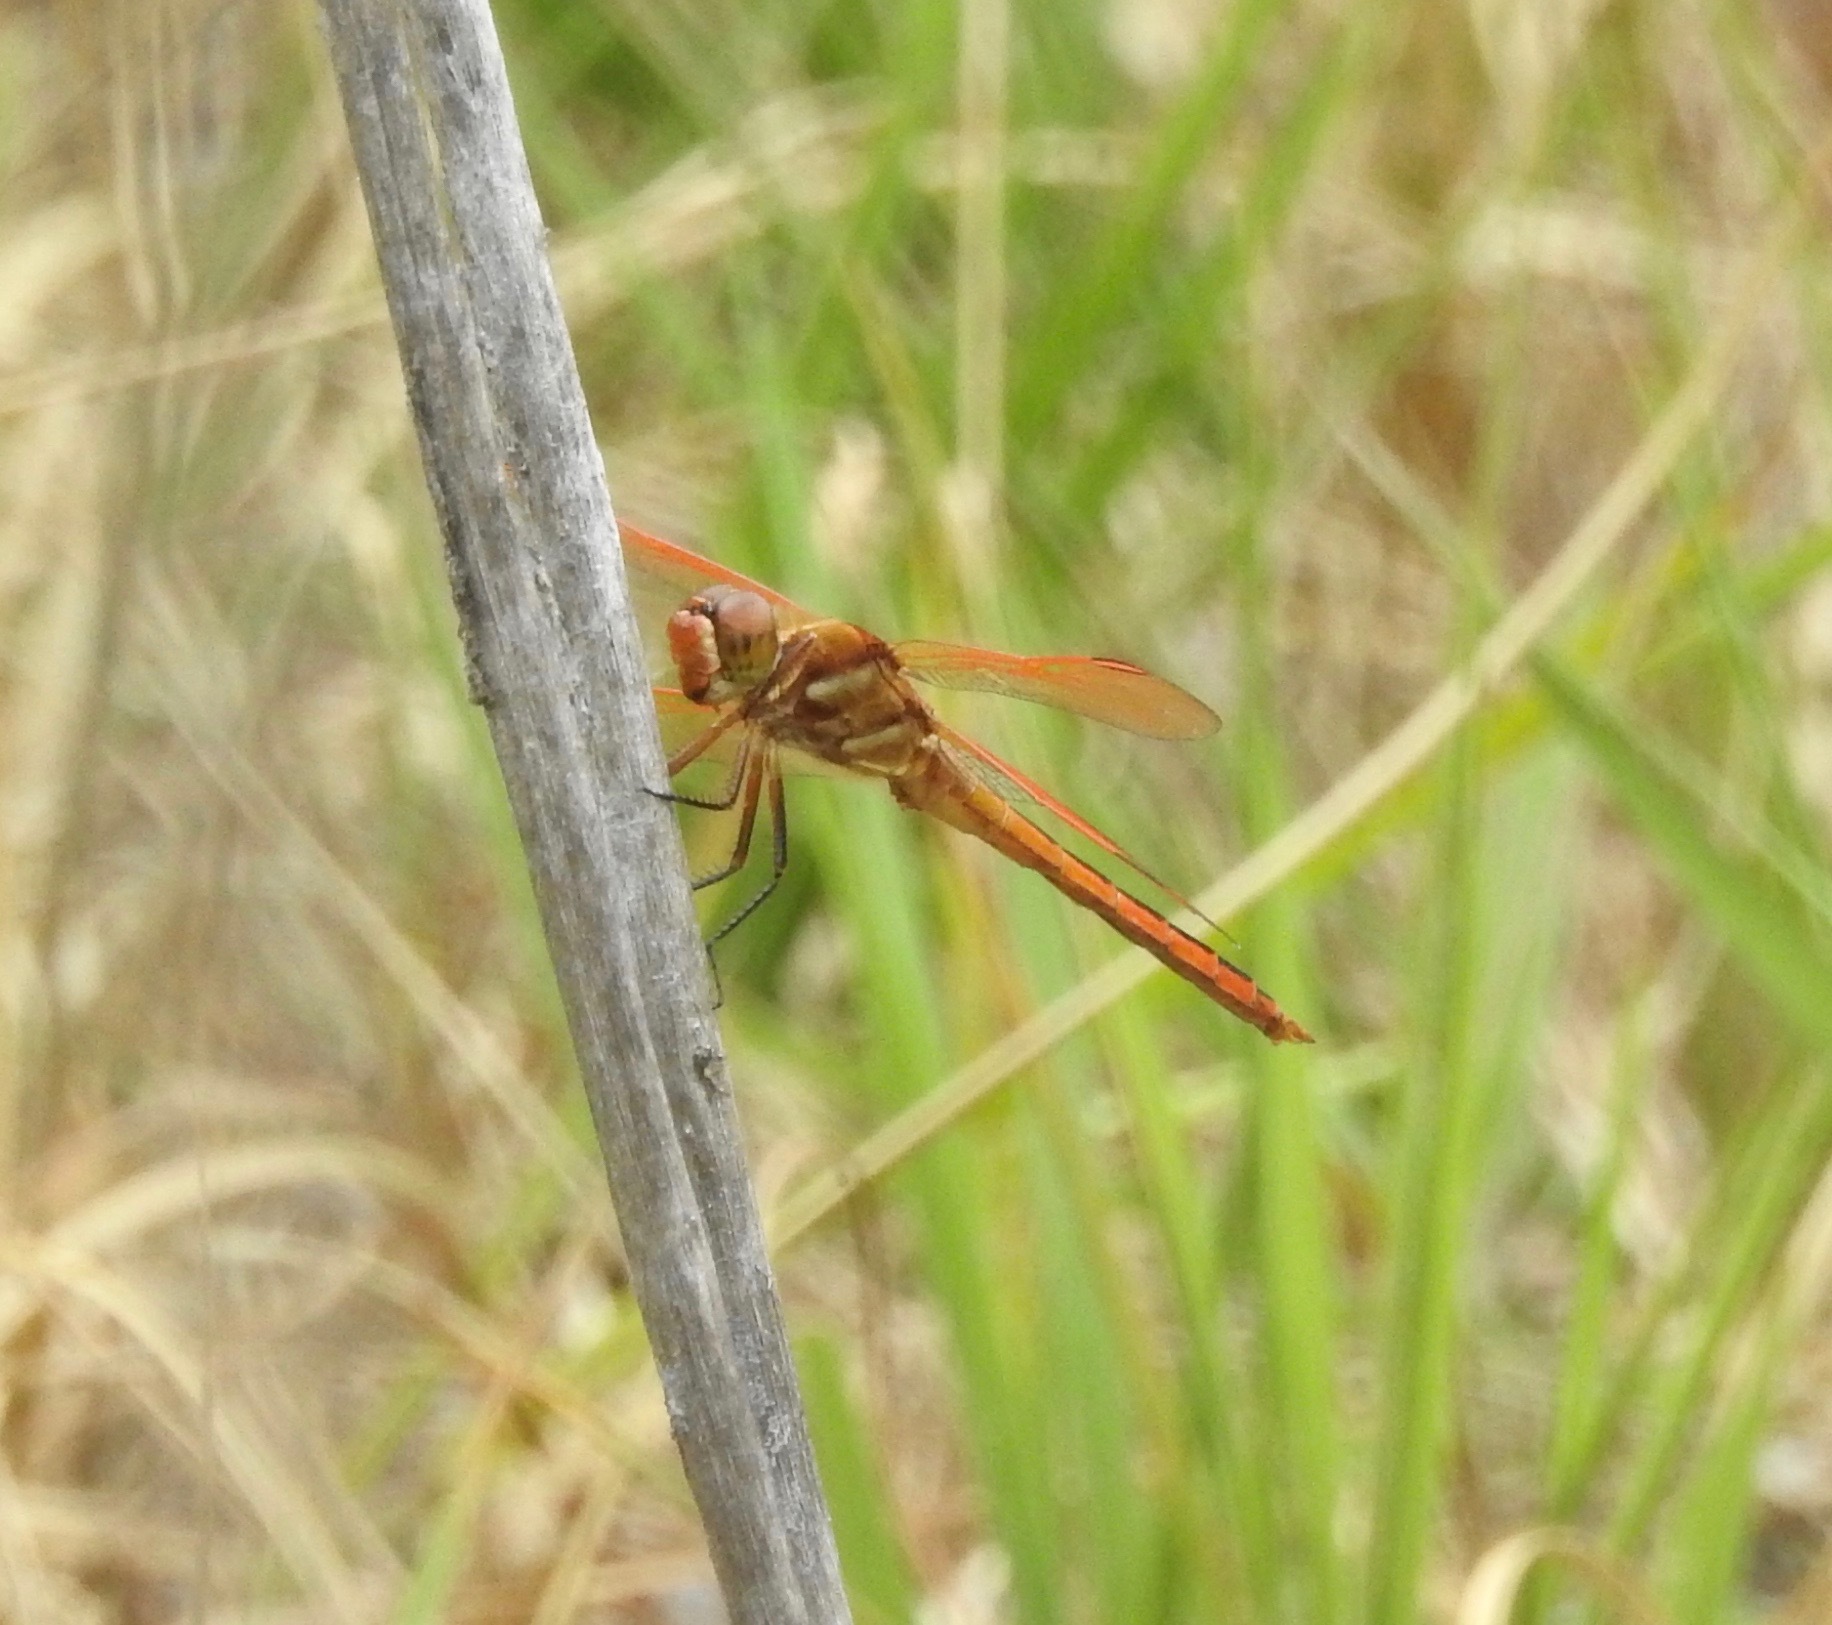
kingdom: Animalia
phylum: Arthropoda
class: Insecta
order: Odonata
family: Libellulidae
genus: Libellula
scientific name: Libellula auripennis
